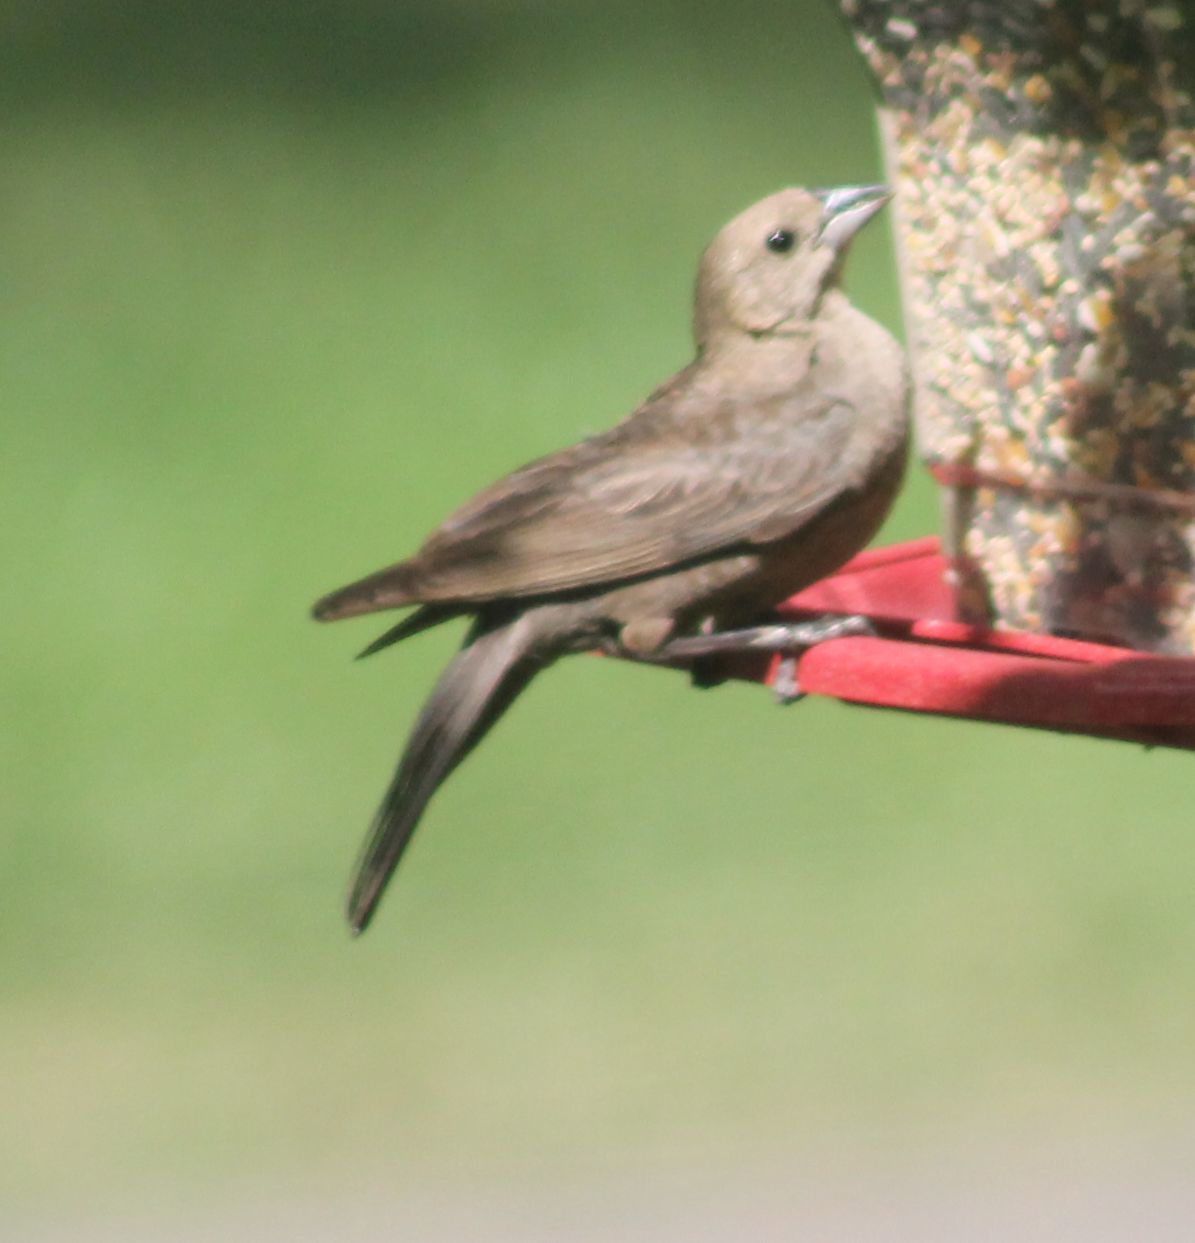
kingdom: Animalia
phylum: Chordata
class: Aves
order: Passeriformes
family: Icteridae
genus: Molothrus
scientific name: Molothrus ater
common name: Brown-headed cowbird
